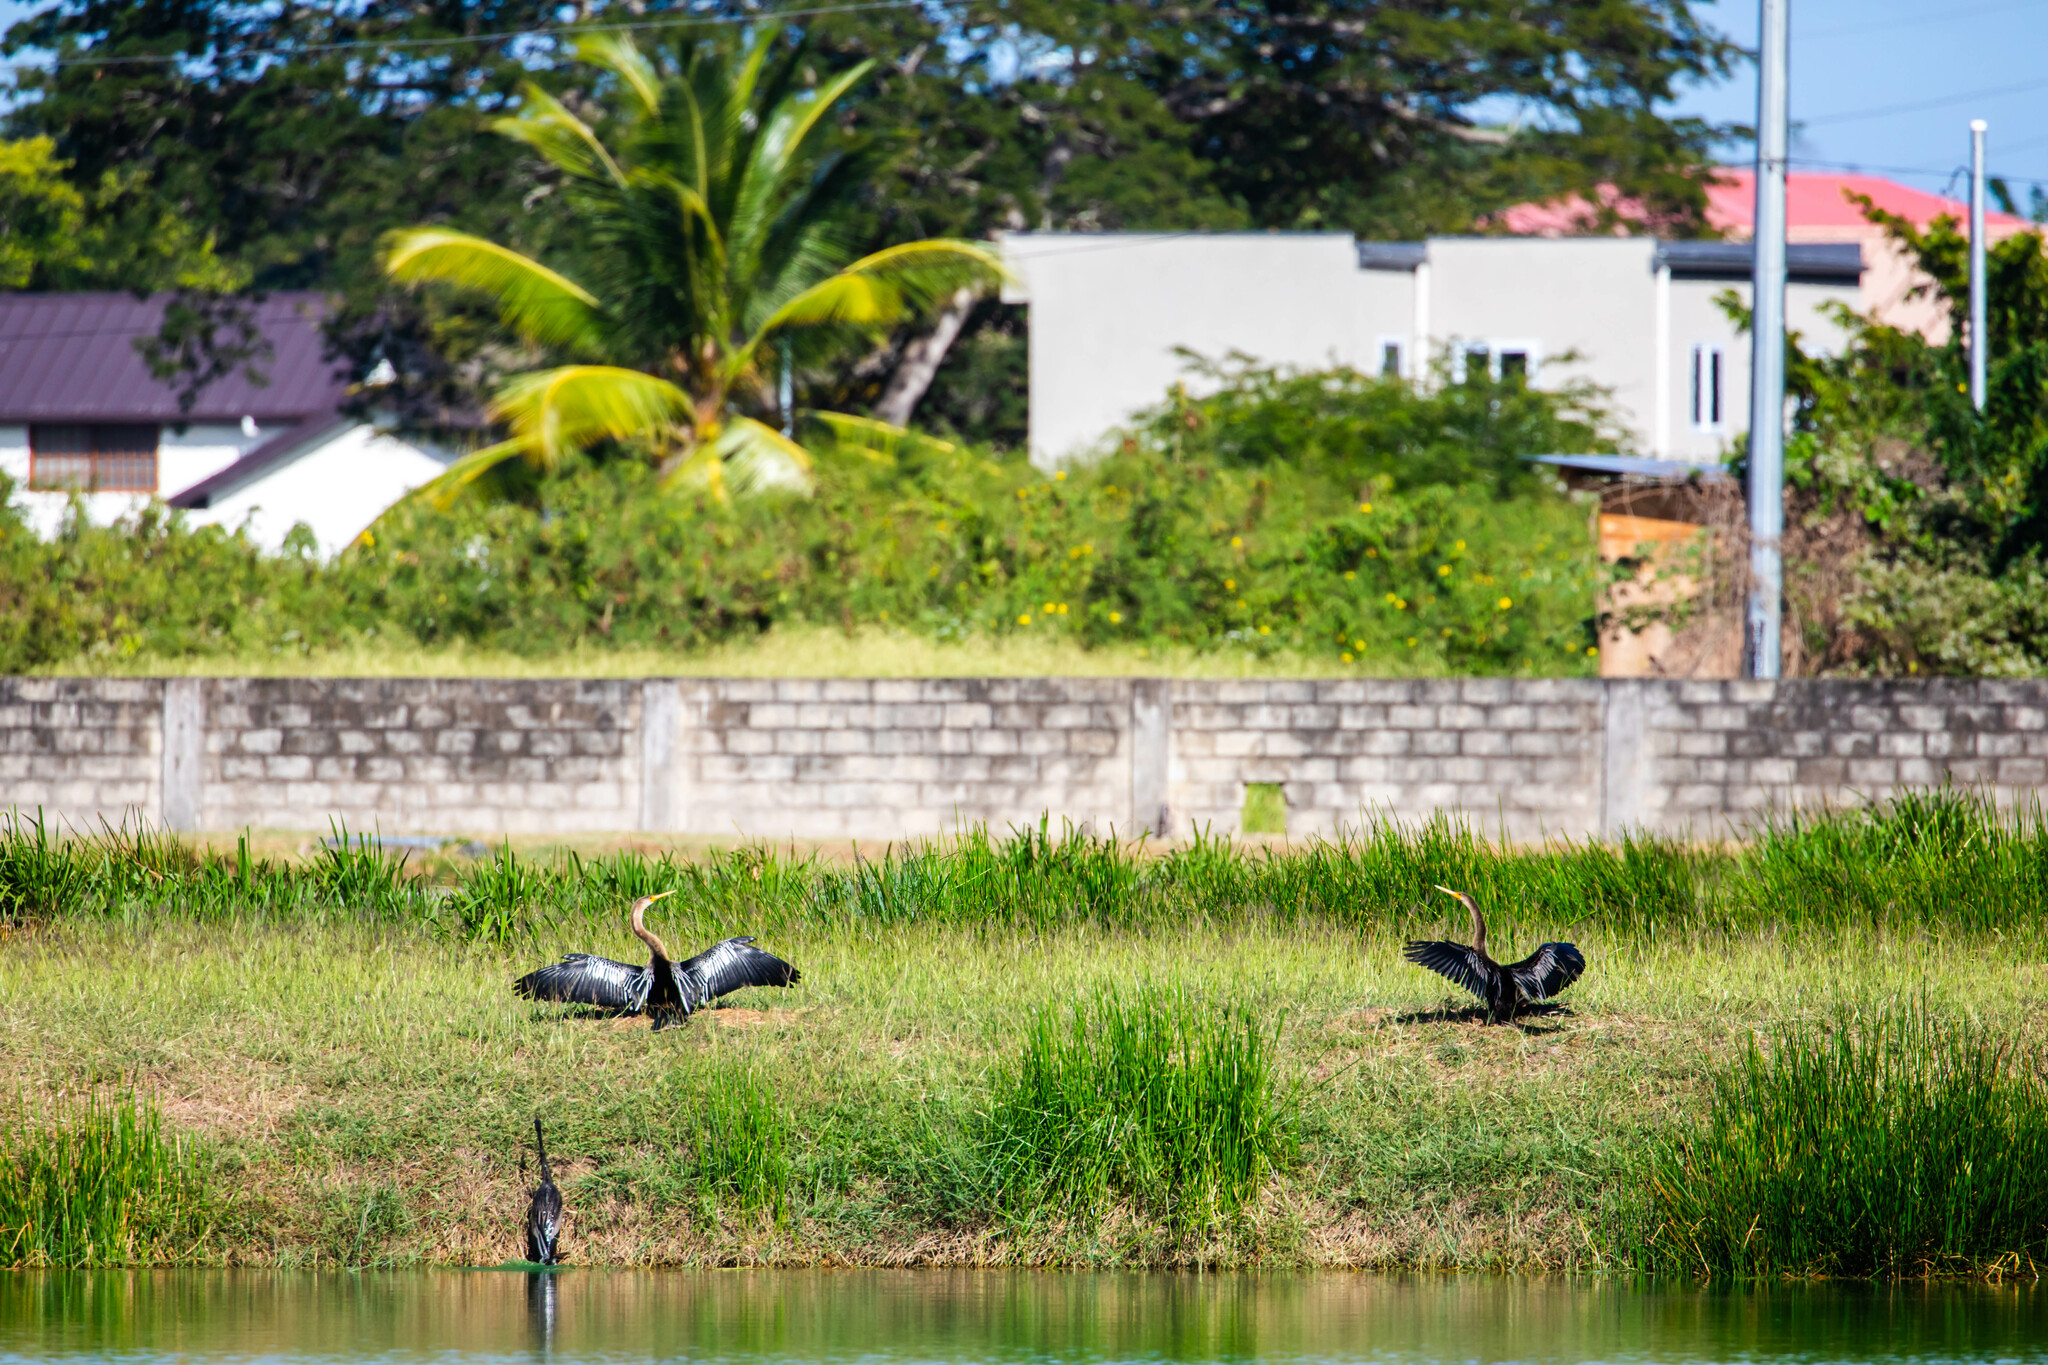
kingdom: Animalia
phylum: Chordata
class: Aves
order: Suliformes
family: Anhingidae
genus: Anhinga
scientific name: Anhinga anhinga
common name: Anhinga
